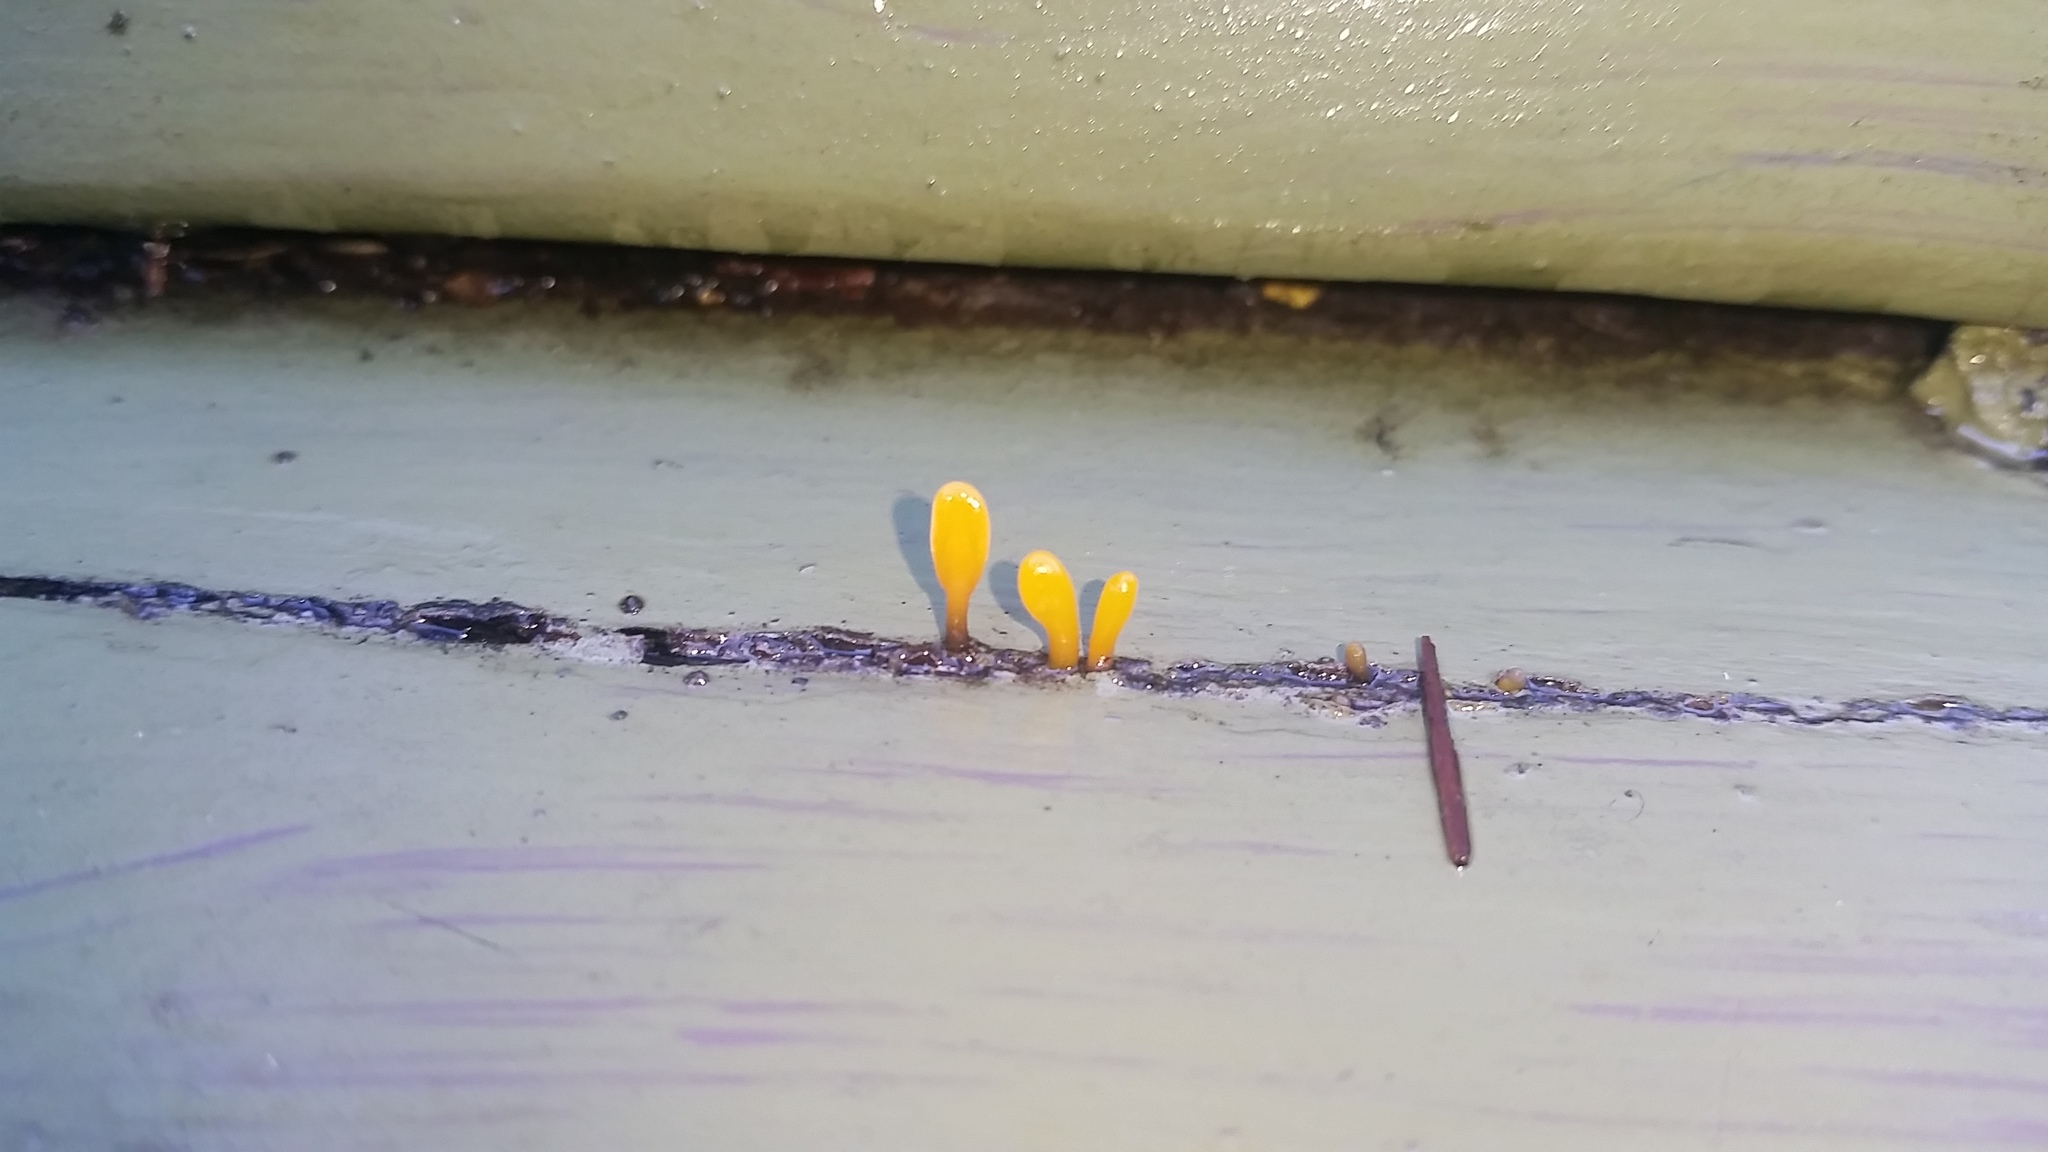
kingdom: Fungi
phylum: Basidiomycota
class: Dacrymycetes
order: Dacrymycetales
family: Dacrymycetaceae
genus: Dacrymyces
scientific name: Dacrymyces spathularius
